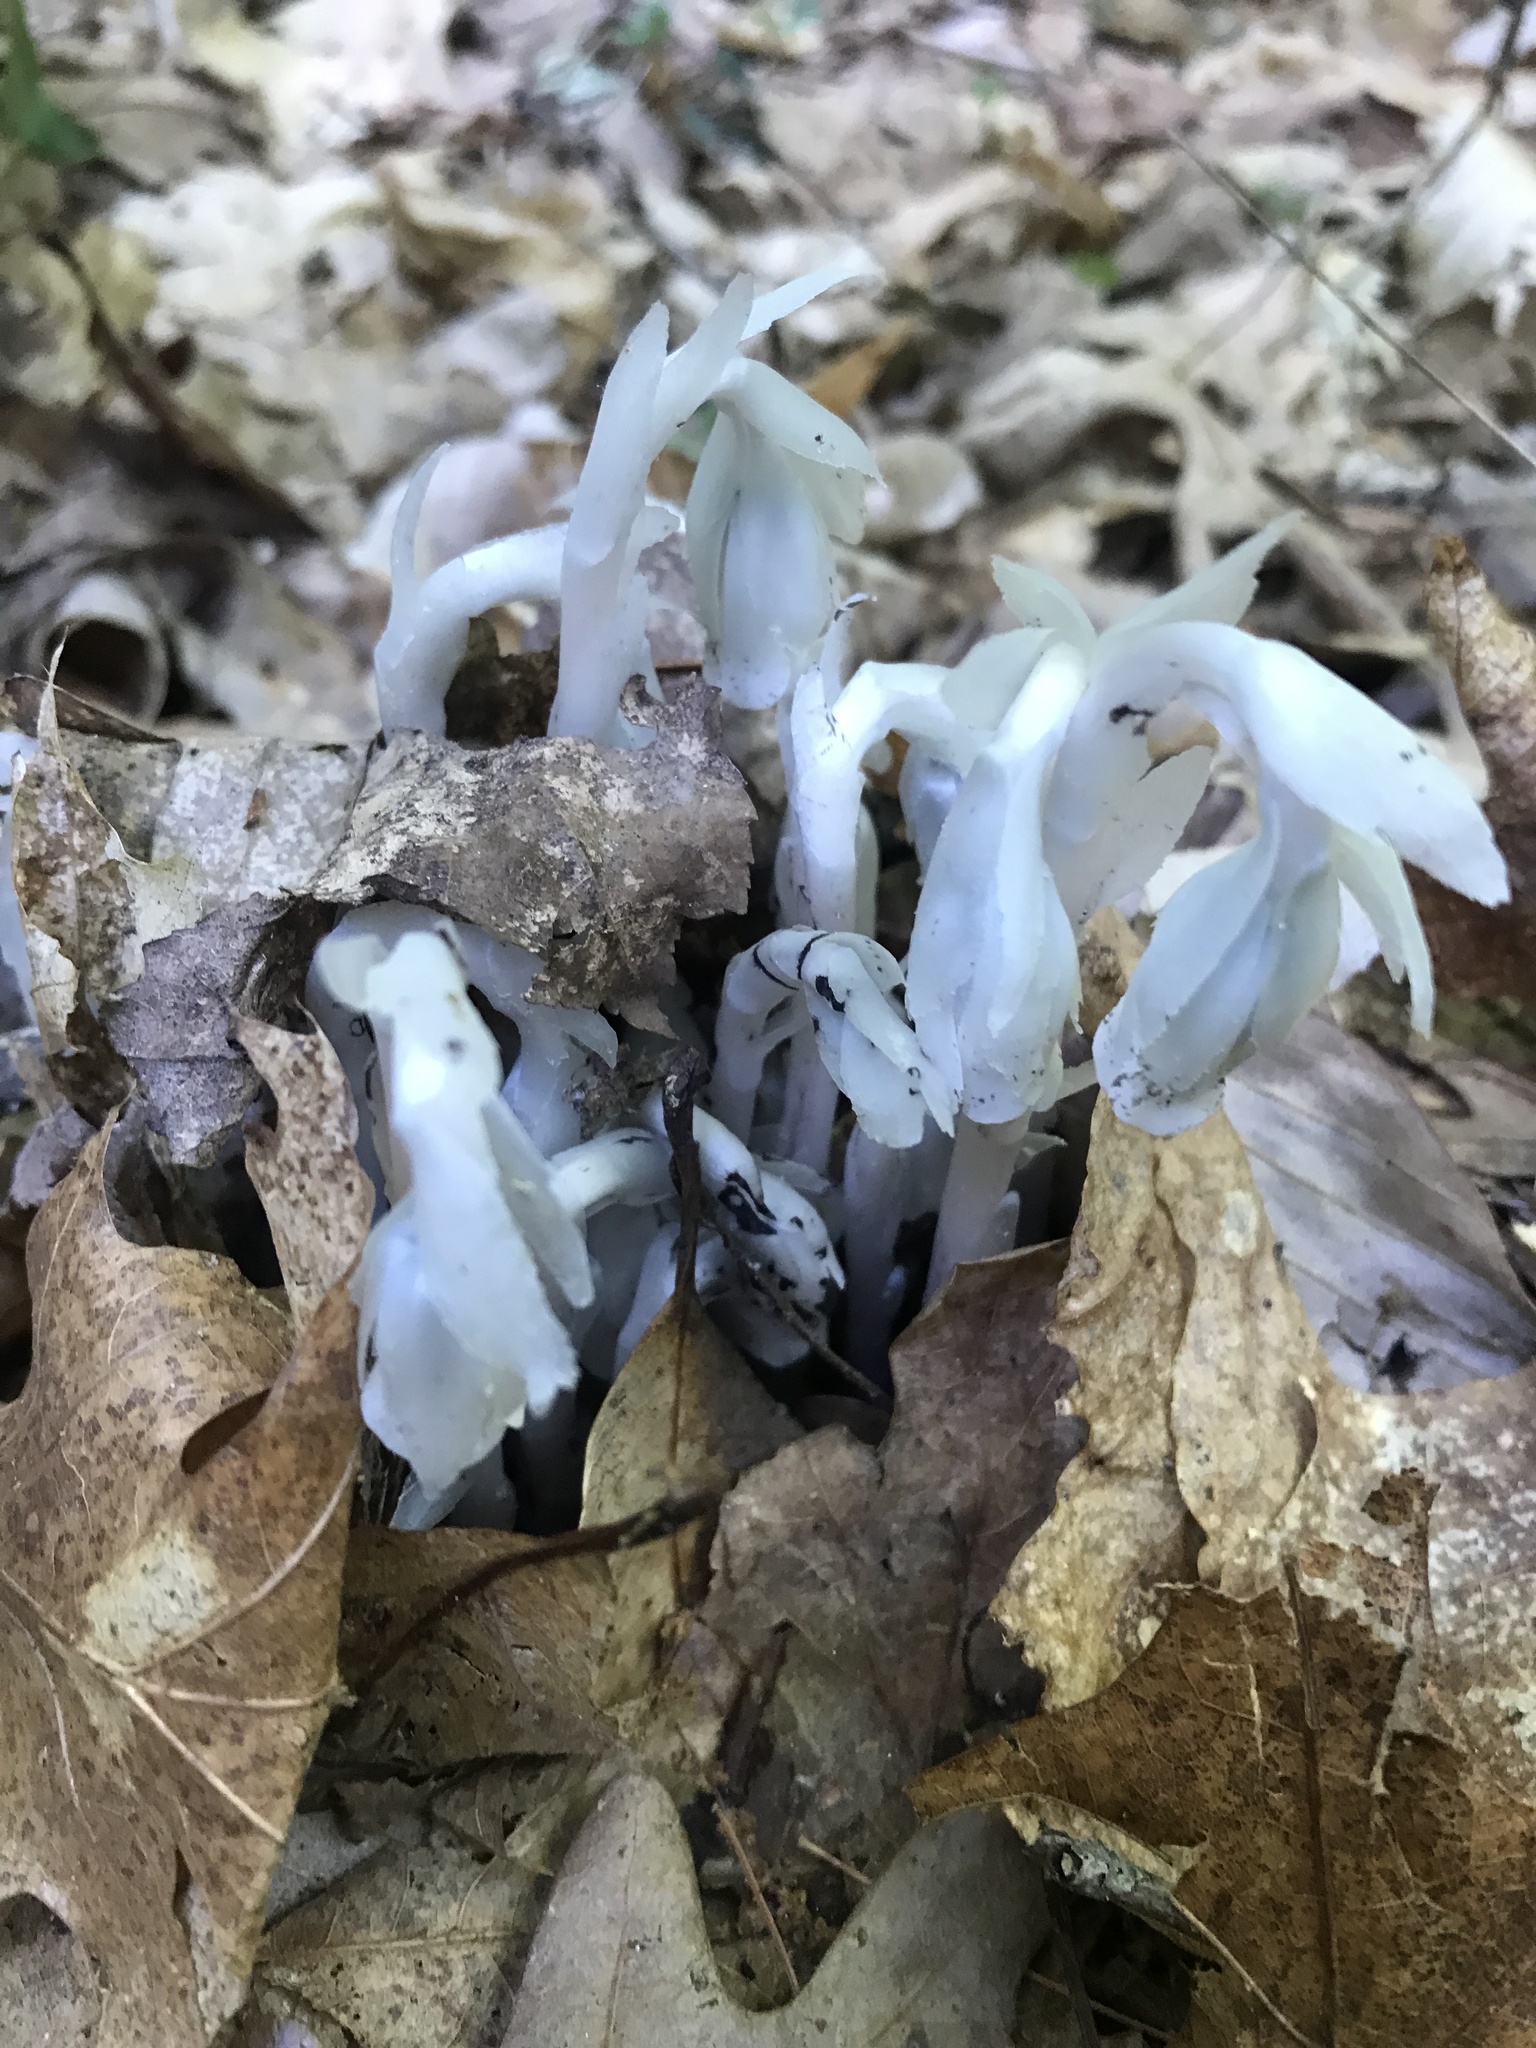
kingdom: Plantae
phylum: Tracheophyta
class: Magnoliopsida
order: Ericales
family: Ericaceae
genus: Monotropa
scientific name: Monotropa uniflora
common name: Convulsion root
